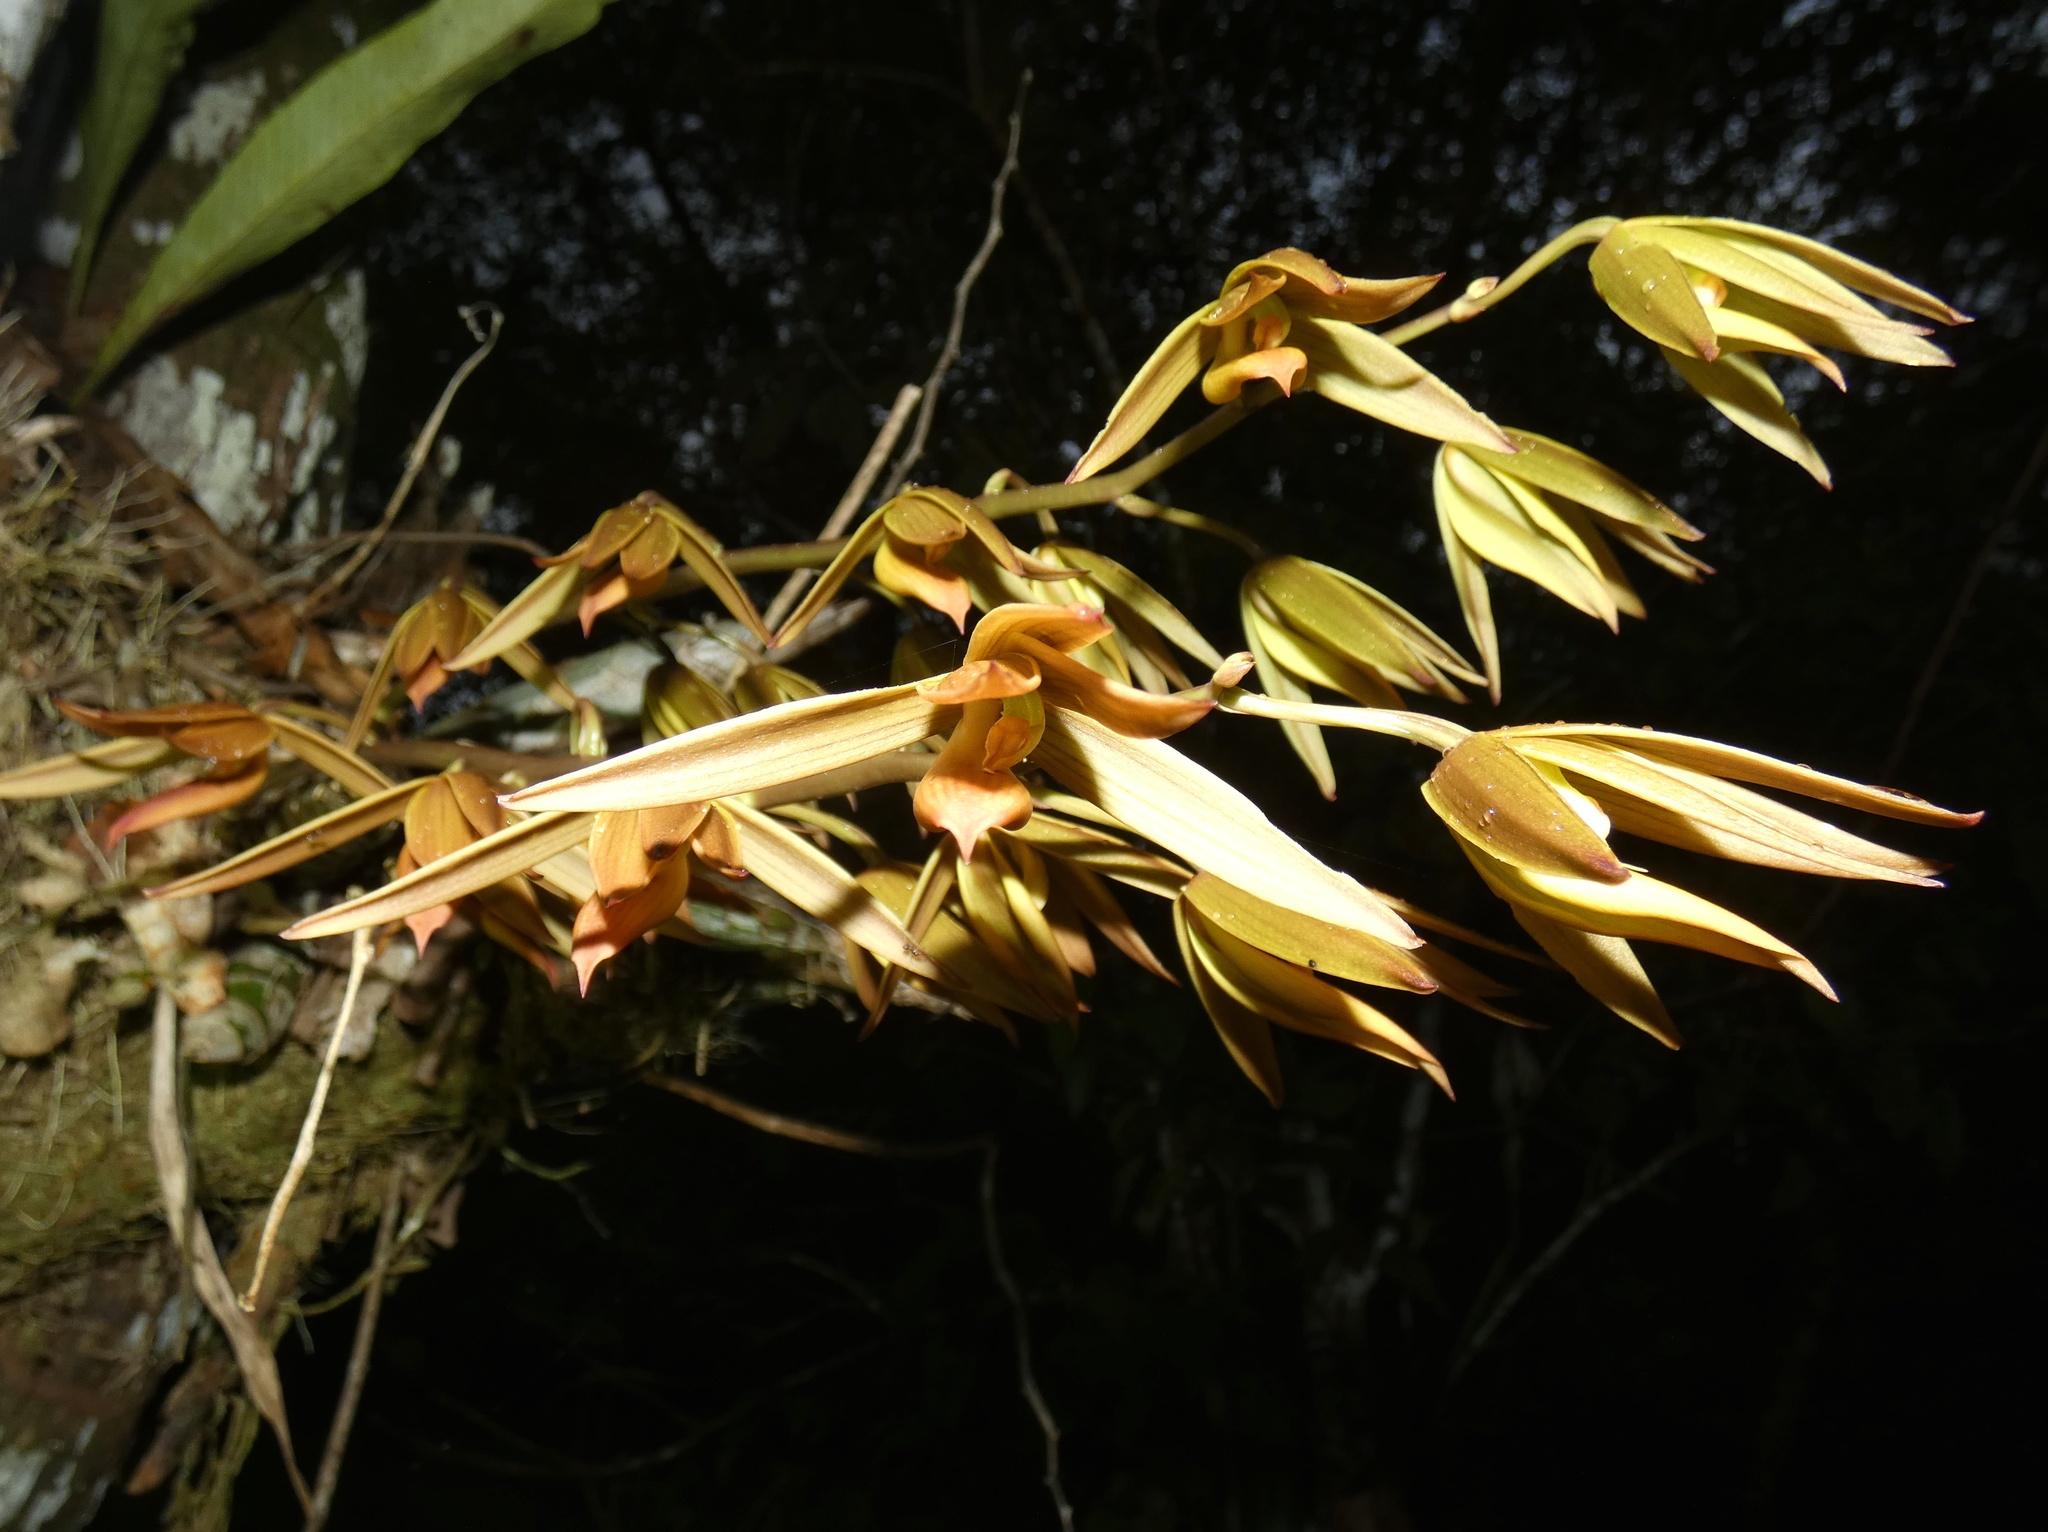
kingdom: Plantae
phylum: Tracheophyta
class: Liliopsida
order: Asparagales
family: Orchidaceae
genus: Mormodes
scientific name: Mormodes fractiflexa
